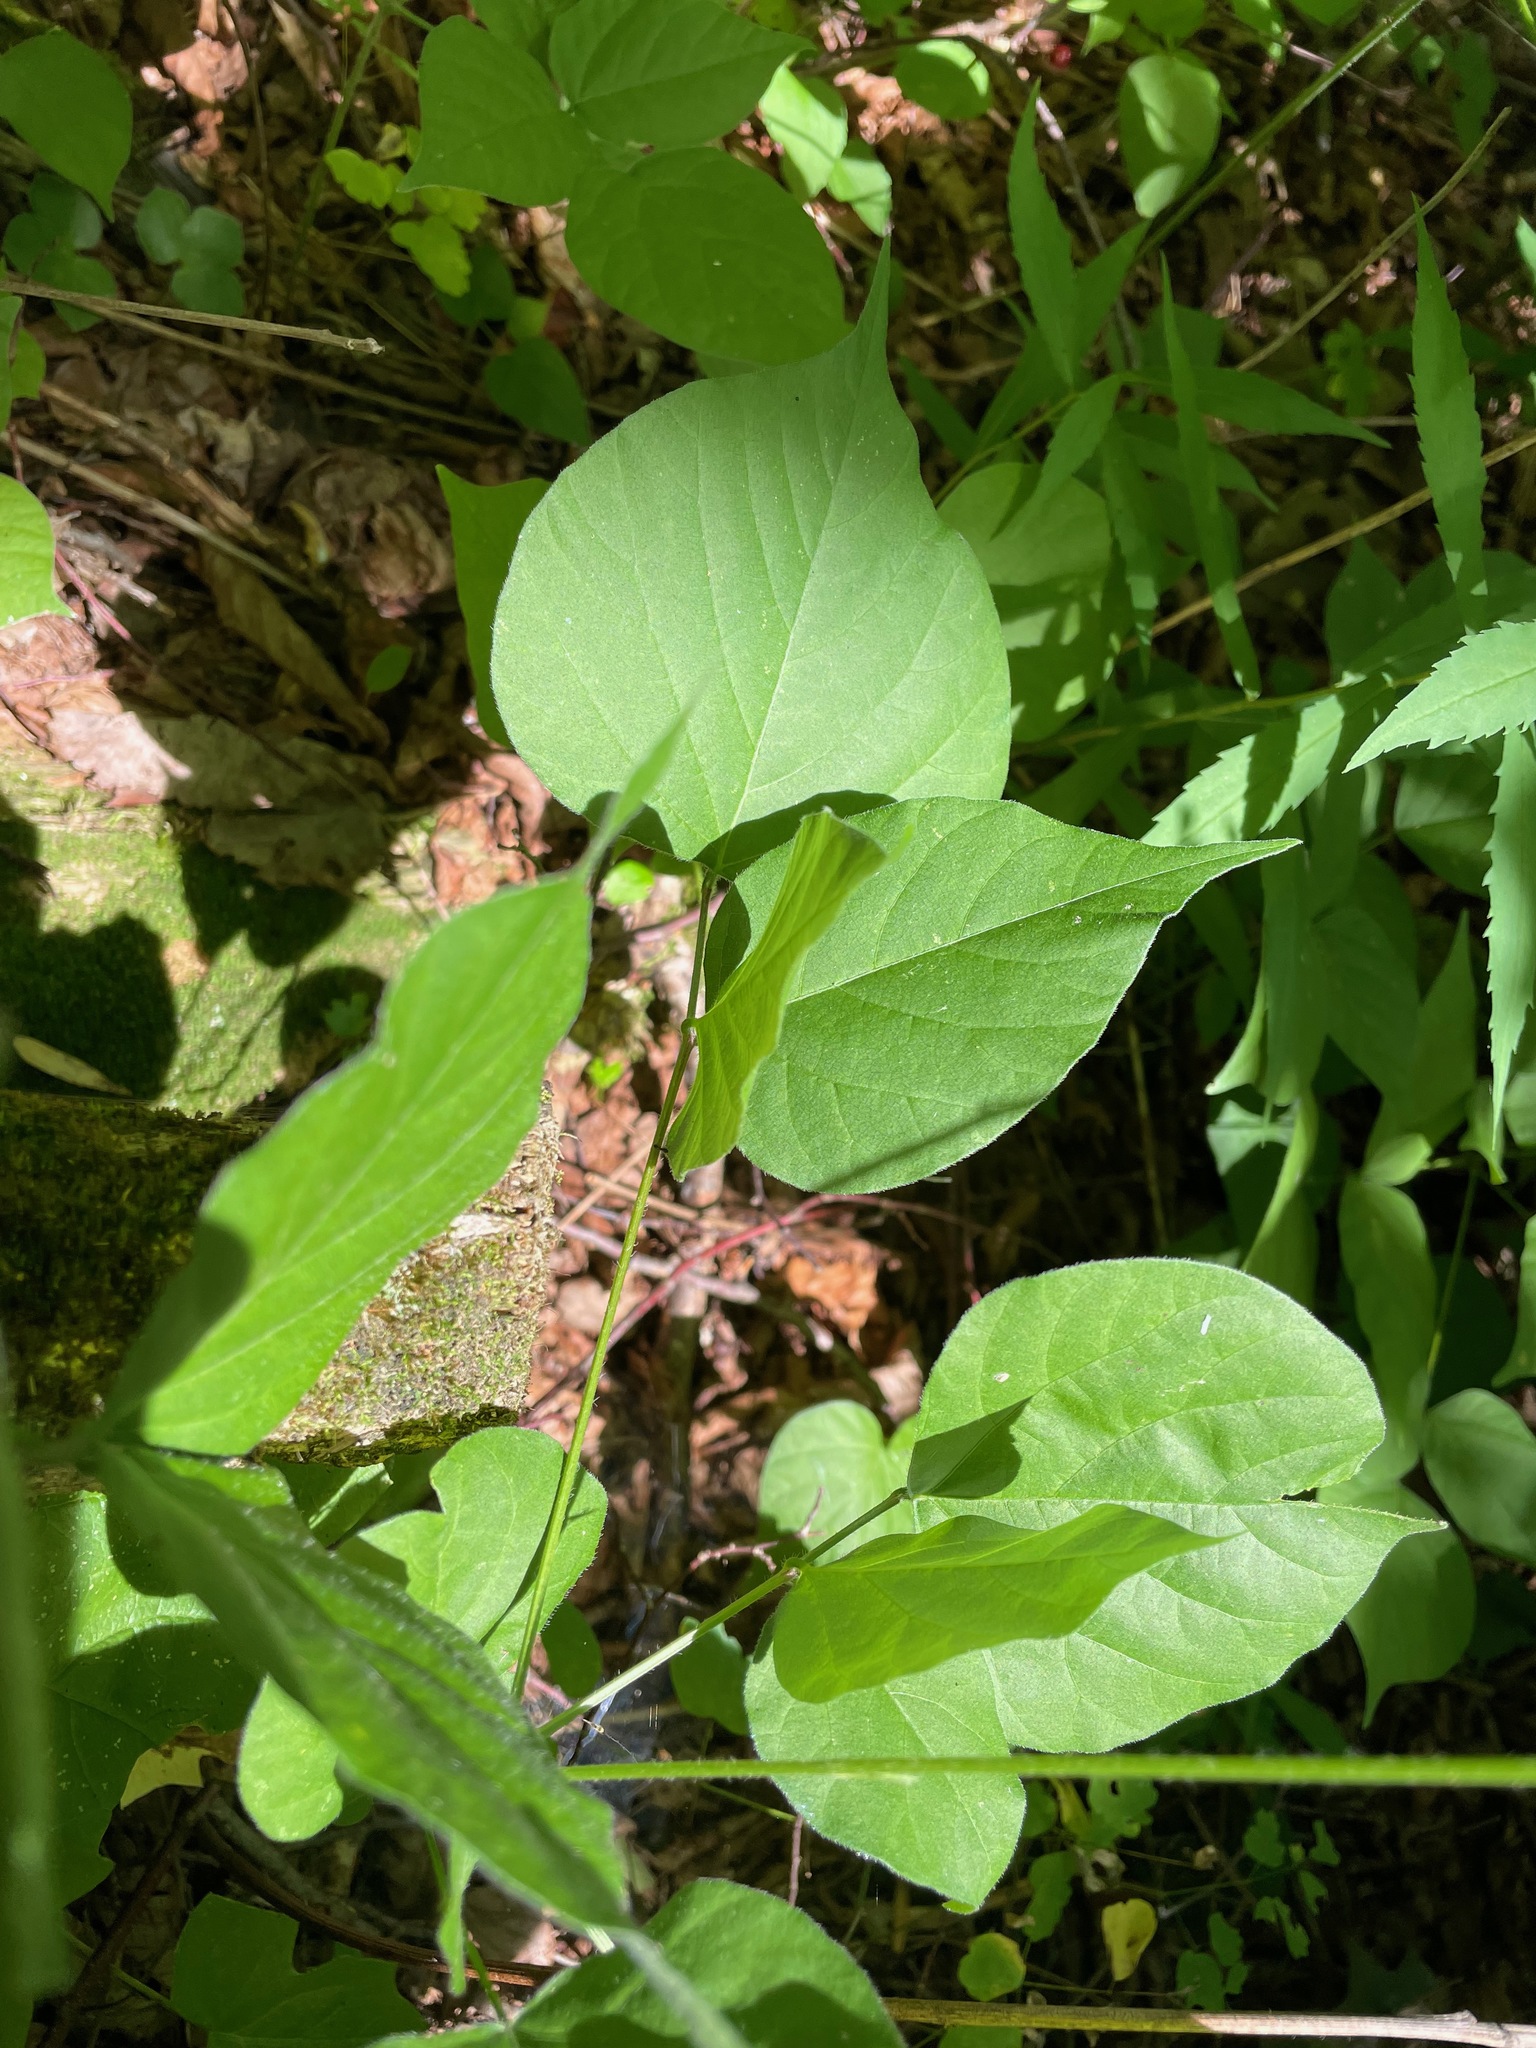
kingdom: Plantae
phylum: Tracheophyta
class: Magnoliopsida
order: Fabales
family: Fabaceae
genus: Hylodesmum
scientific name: Hylodesmum glutinosum
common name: Clustered-leaved tick-trefoil
